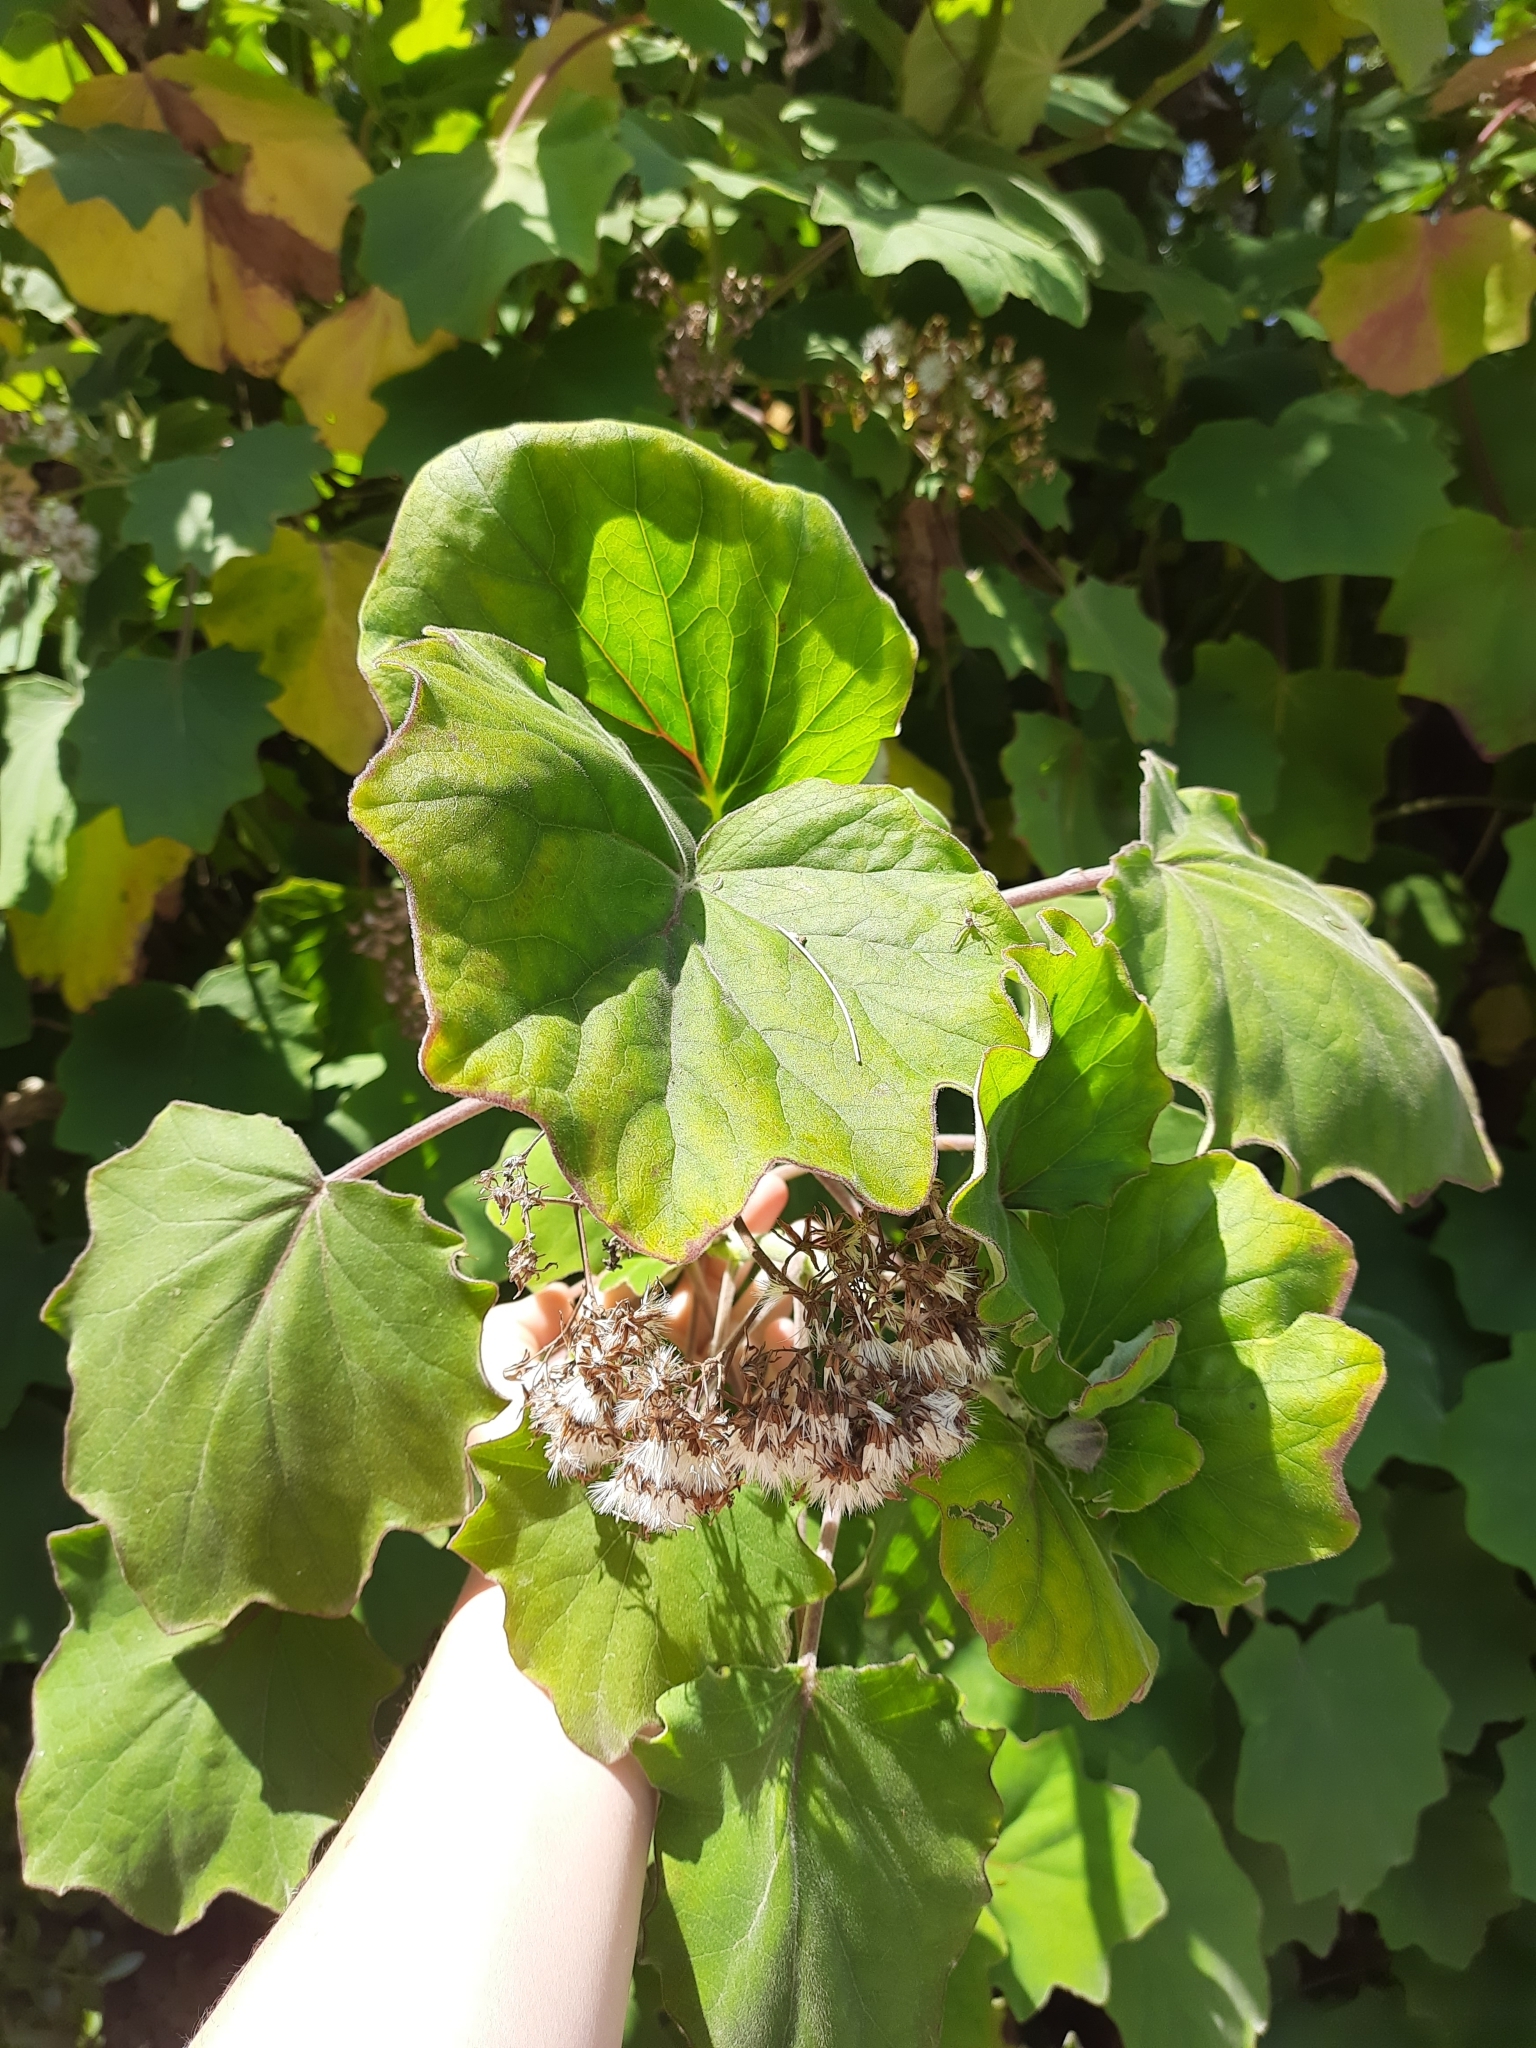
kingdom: Plantae
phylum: Tracheophyta
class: Magnoliopsida
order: Asterales
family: Asteraceae
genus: Roldana
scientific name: Roldana petasitis
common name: California-geranium
